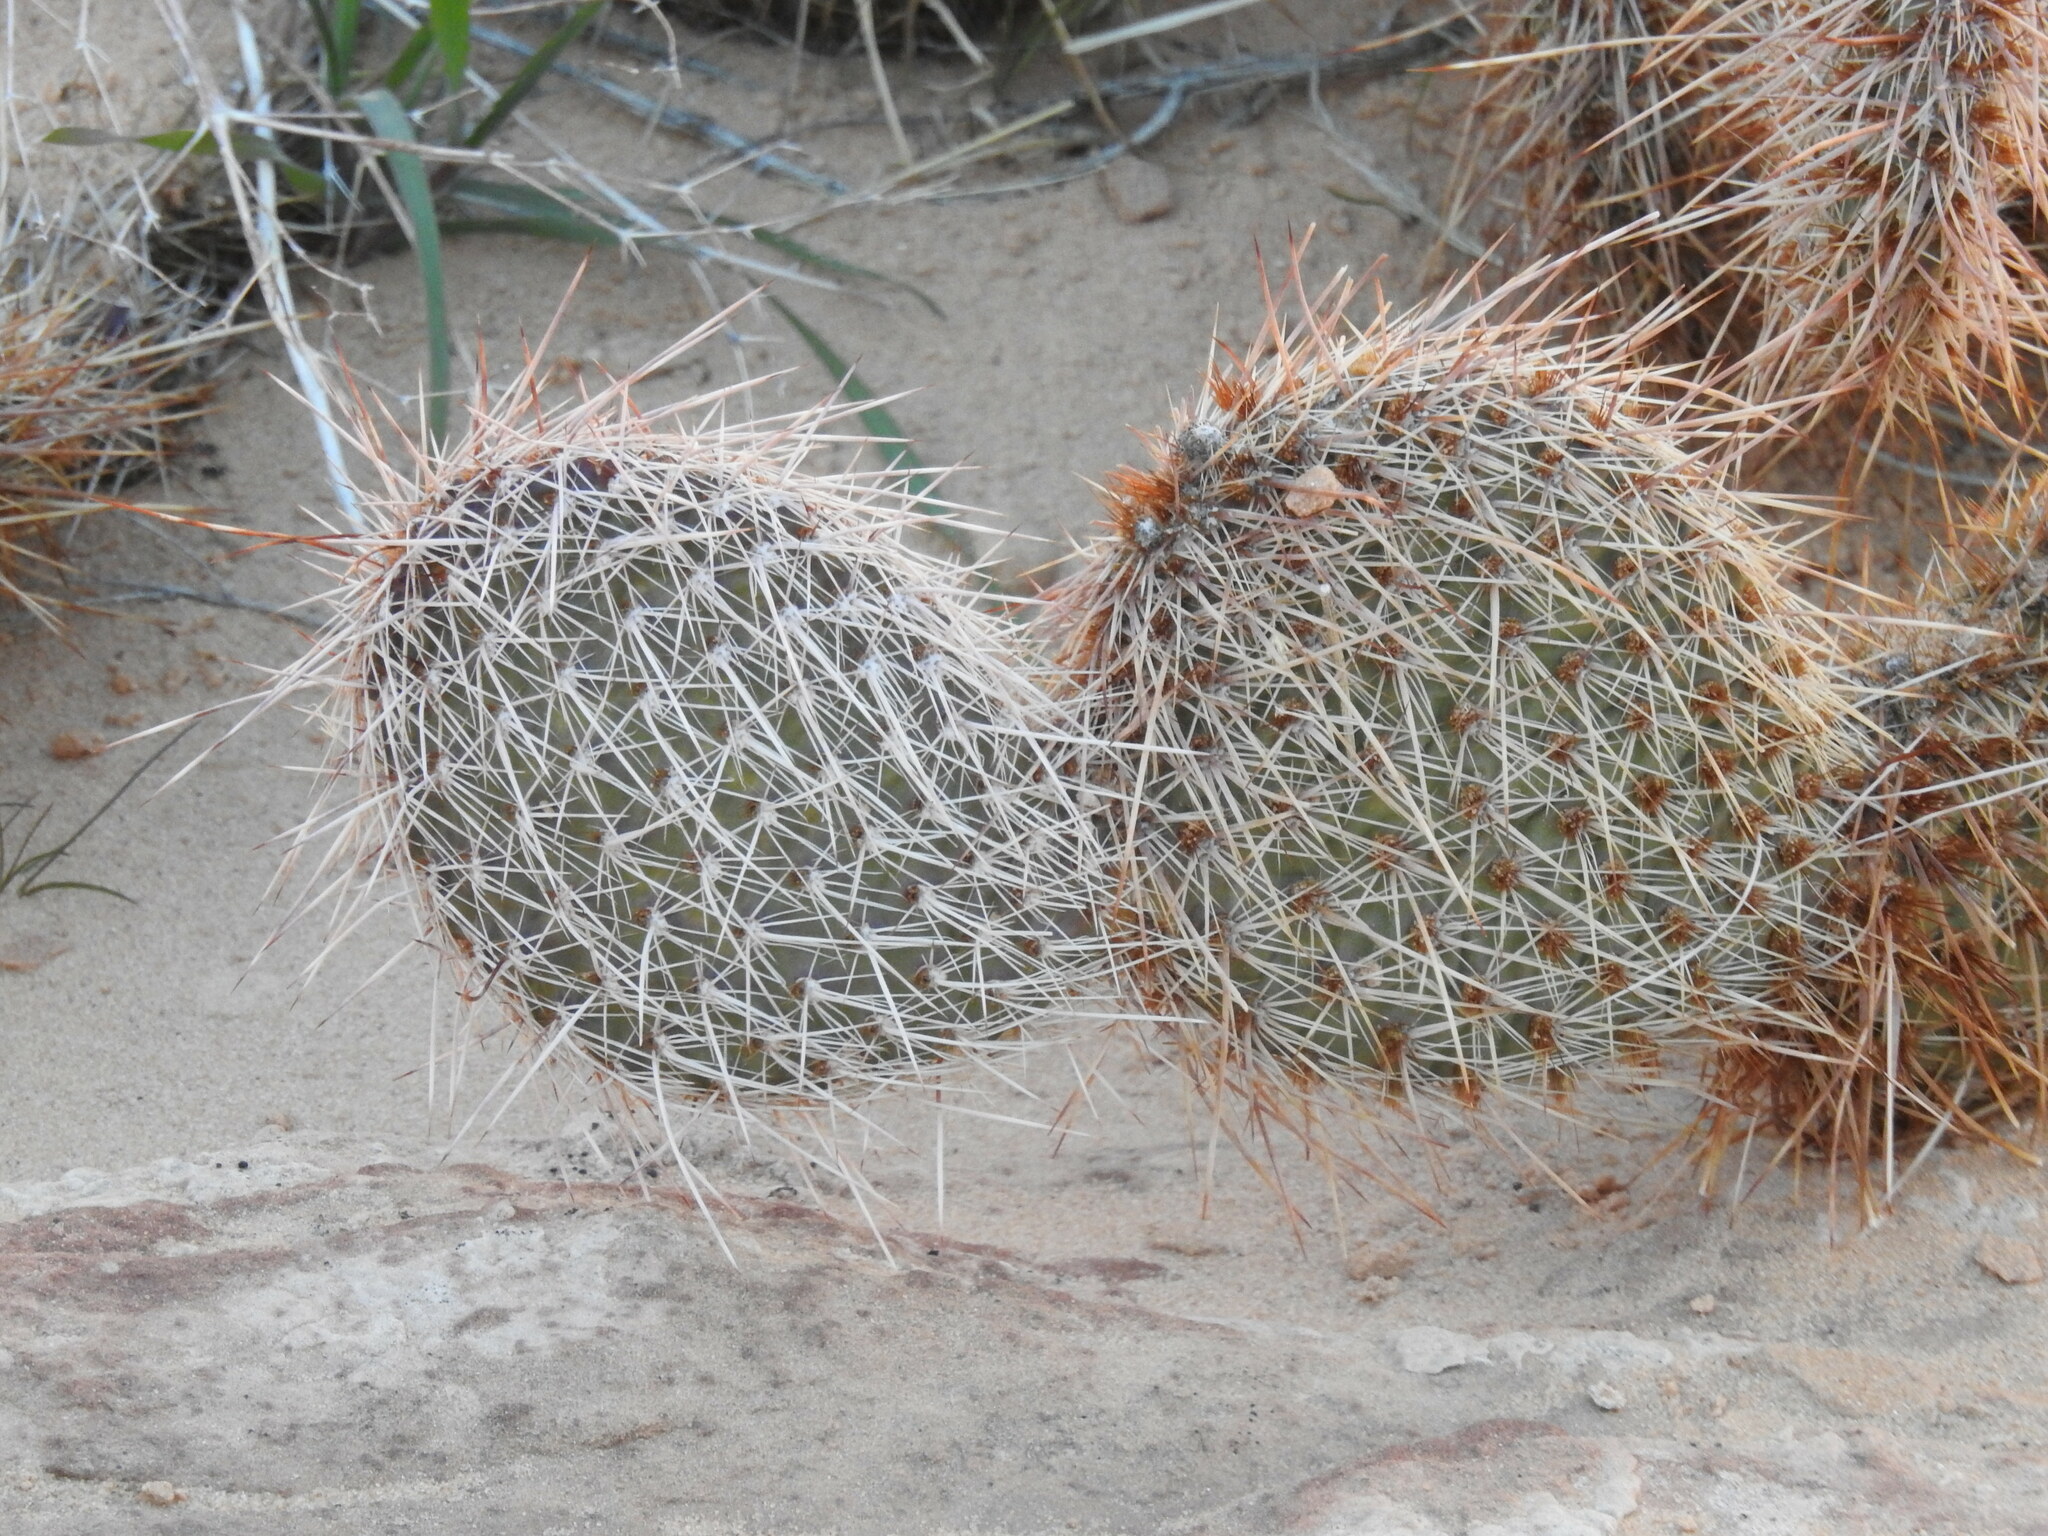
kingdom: Plantae
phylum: Tracheophyta
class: Magnoliopsida
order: Caryophyllales
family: Cactaceae
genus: Opuntia
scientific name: Opuntia polyacantha
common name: Plains prickly-pear
